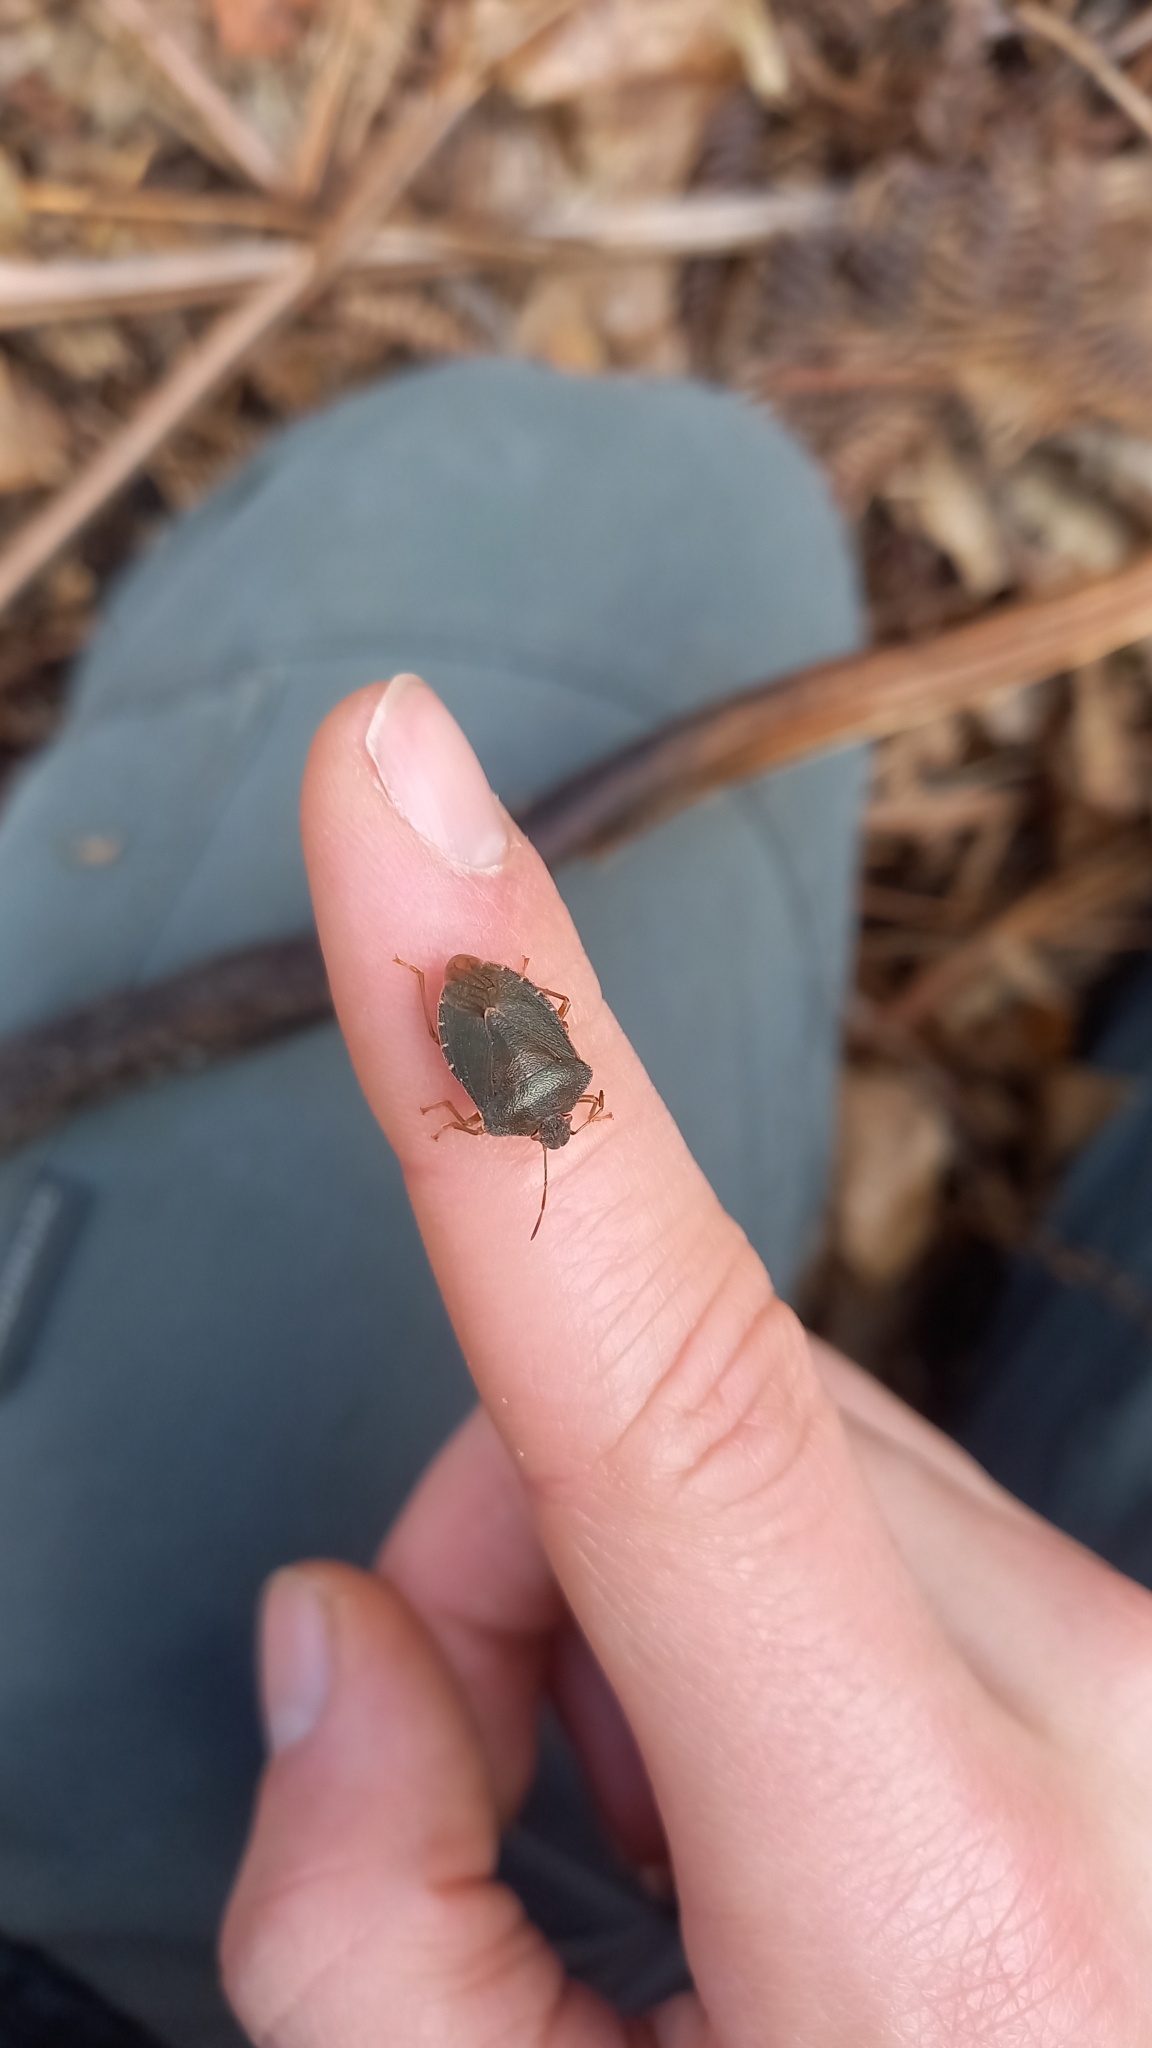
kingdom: Animalia
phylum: Arthropoda
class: Insecta
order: Hemiptera
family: Pentatomidae
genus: Palomena
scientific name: Palomena prasina
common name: Green shieldbug
